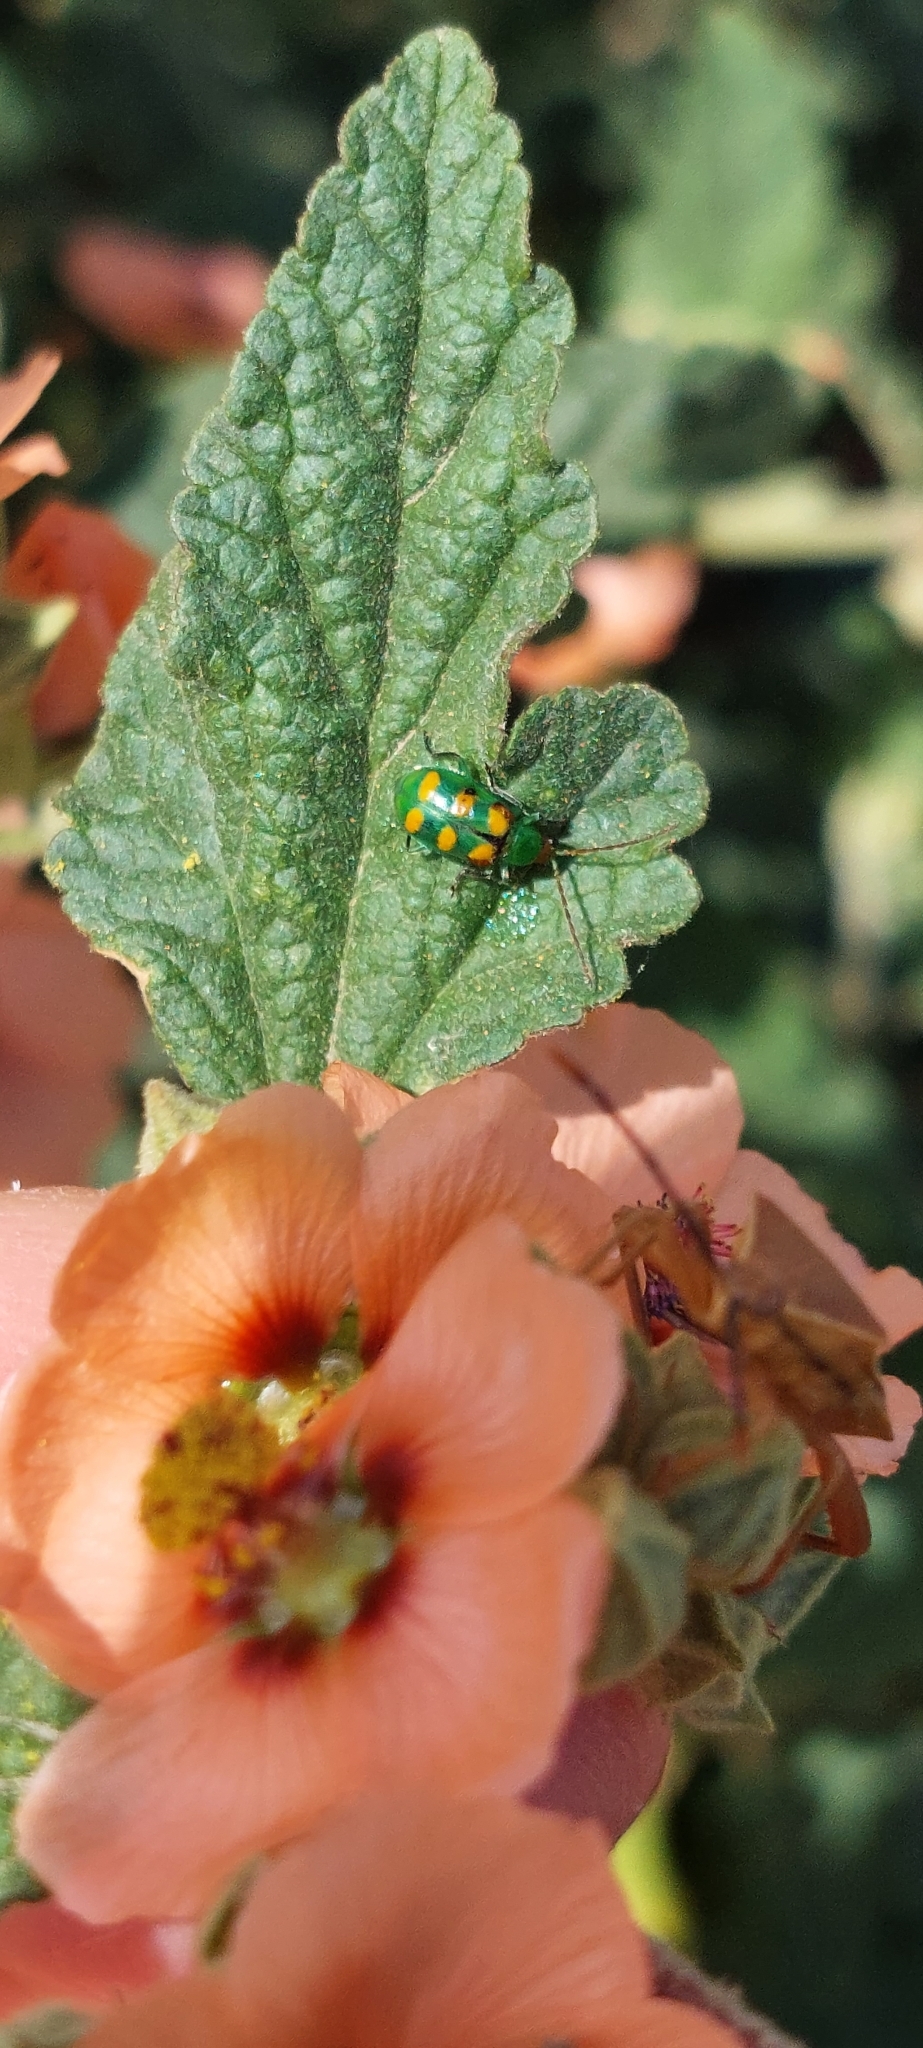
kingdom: Animalia
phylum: Arthropoda
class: Insecta
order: Coleoptera
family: Chrysomelidae
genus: Diabrotica
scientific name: Diabrotica speciosa
